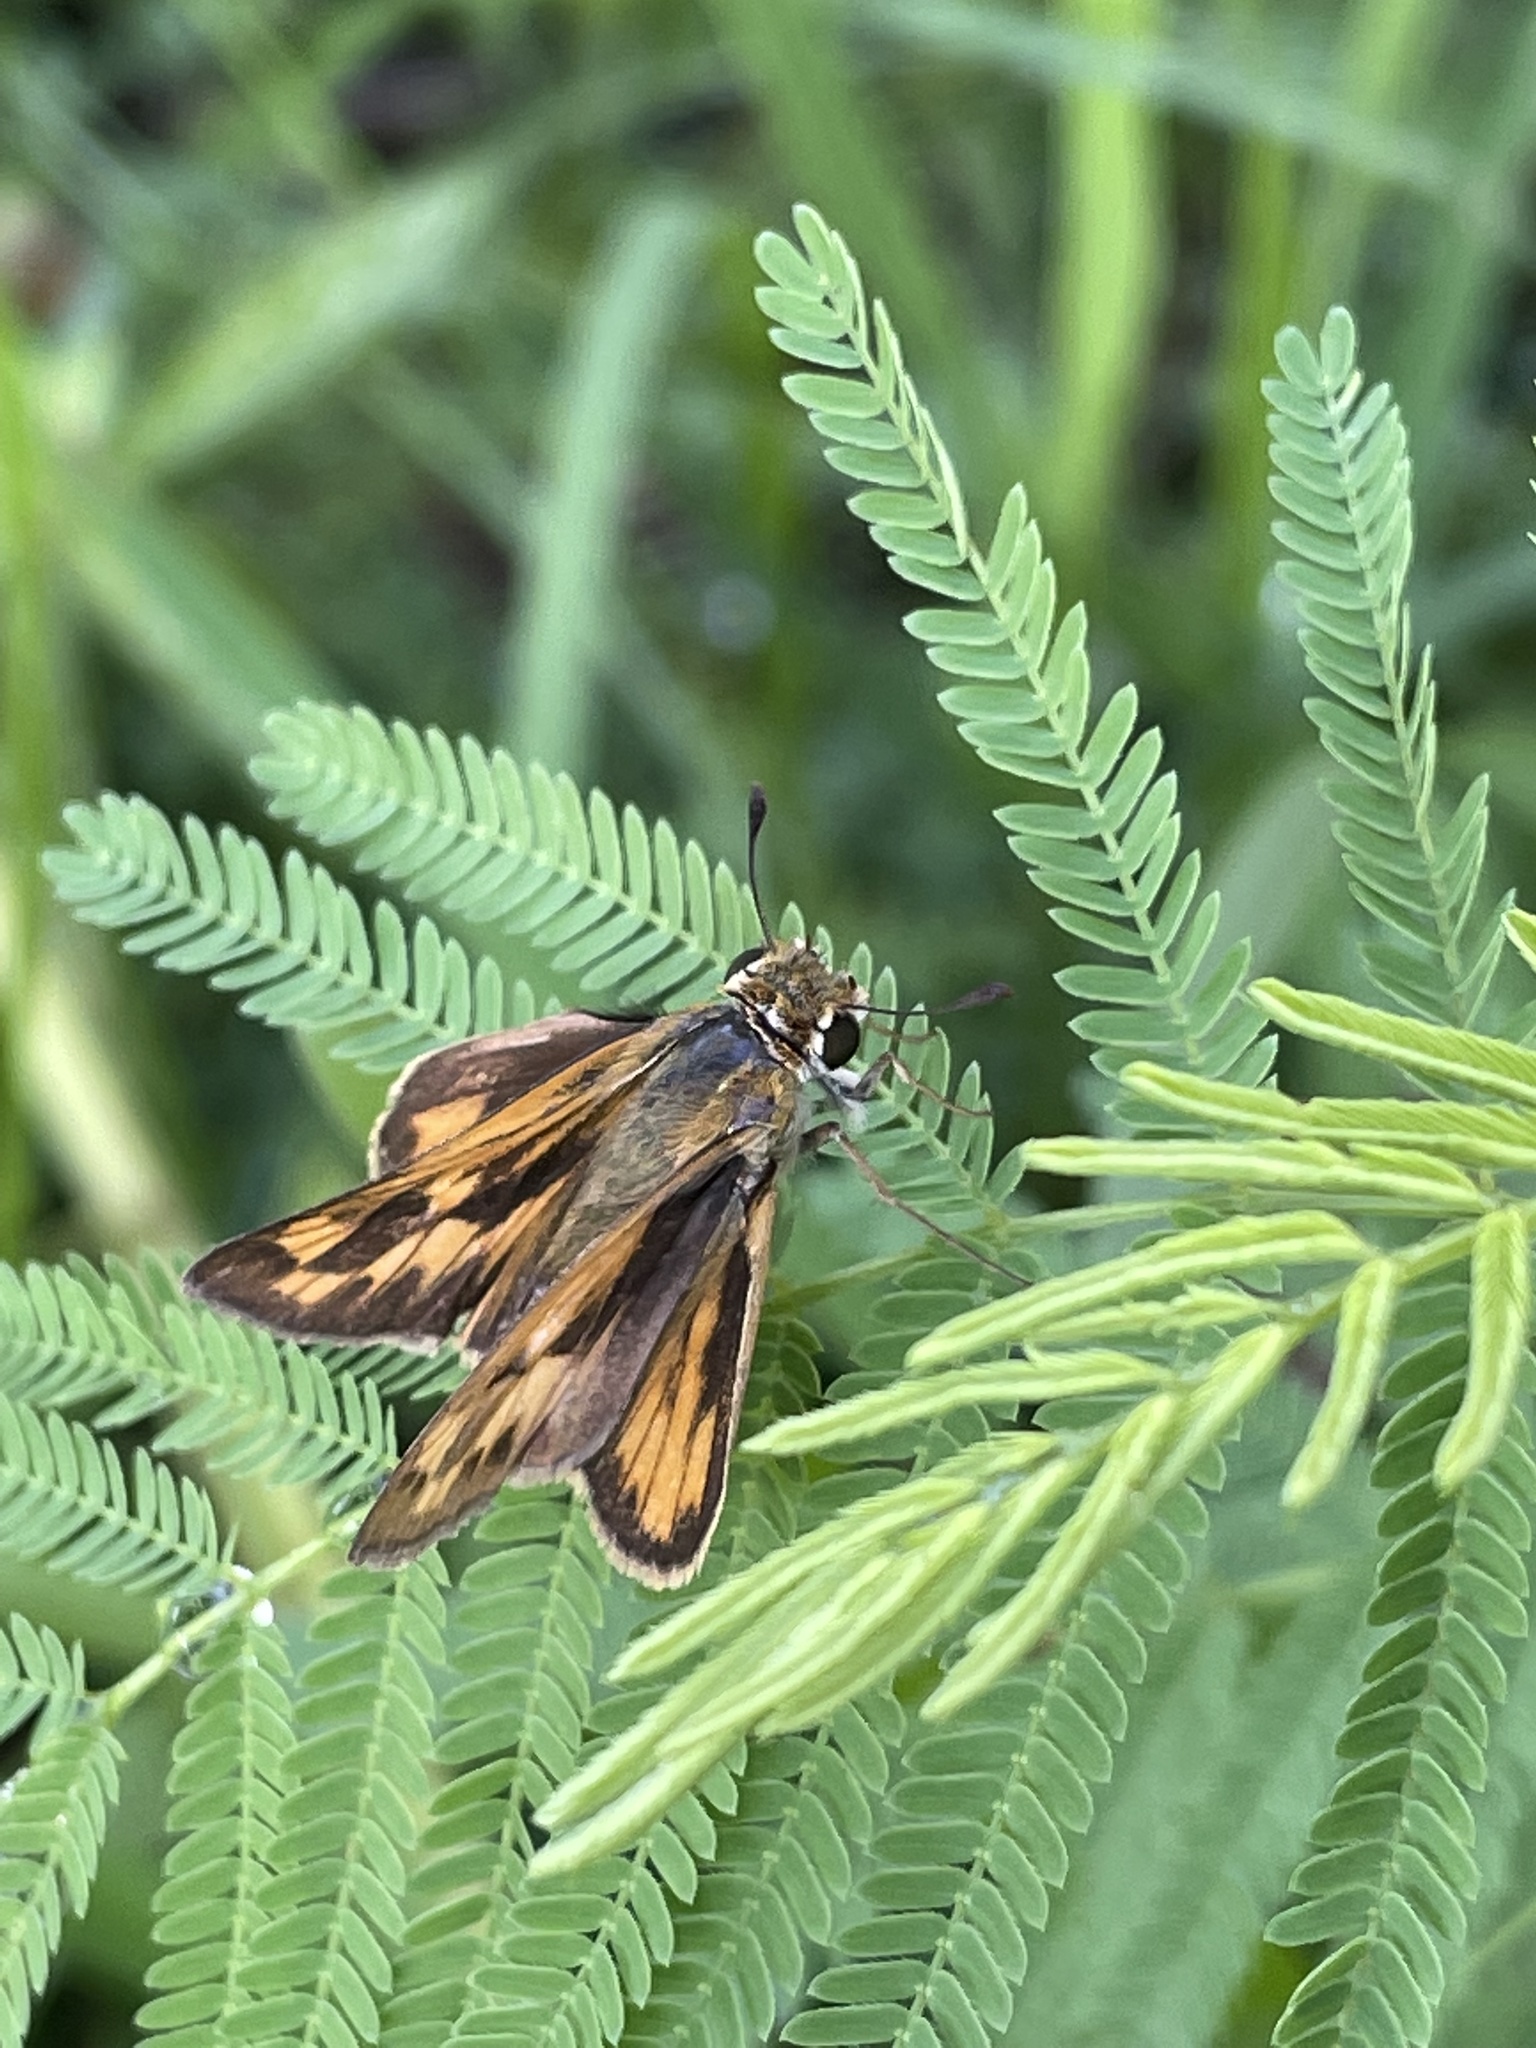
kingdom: Animalia
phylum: Arthropoda
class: Insecta
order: Lepidoptera
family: Hesperiidae
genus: Hylephila
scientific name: Hylephila phyleus
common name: Fiery skipper
